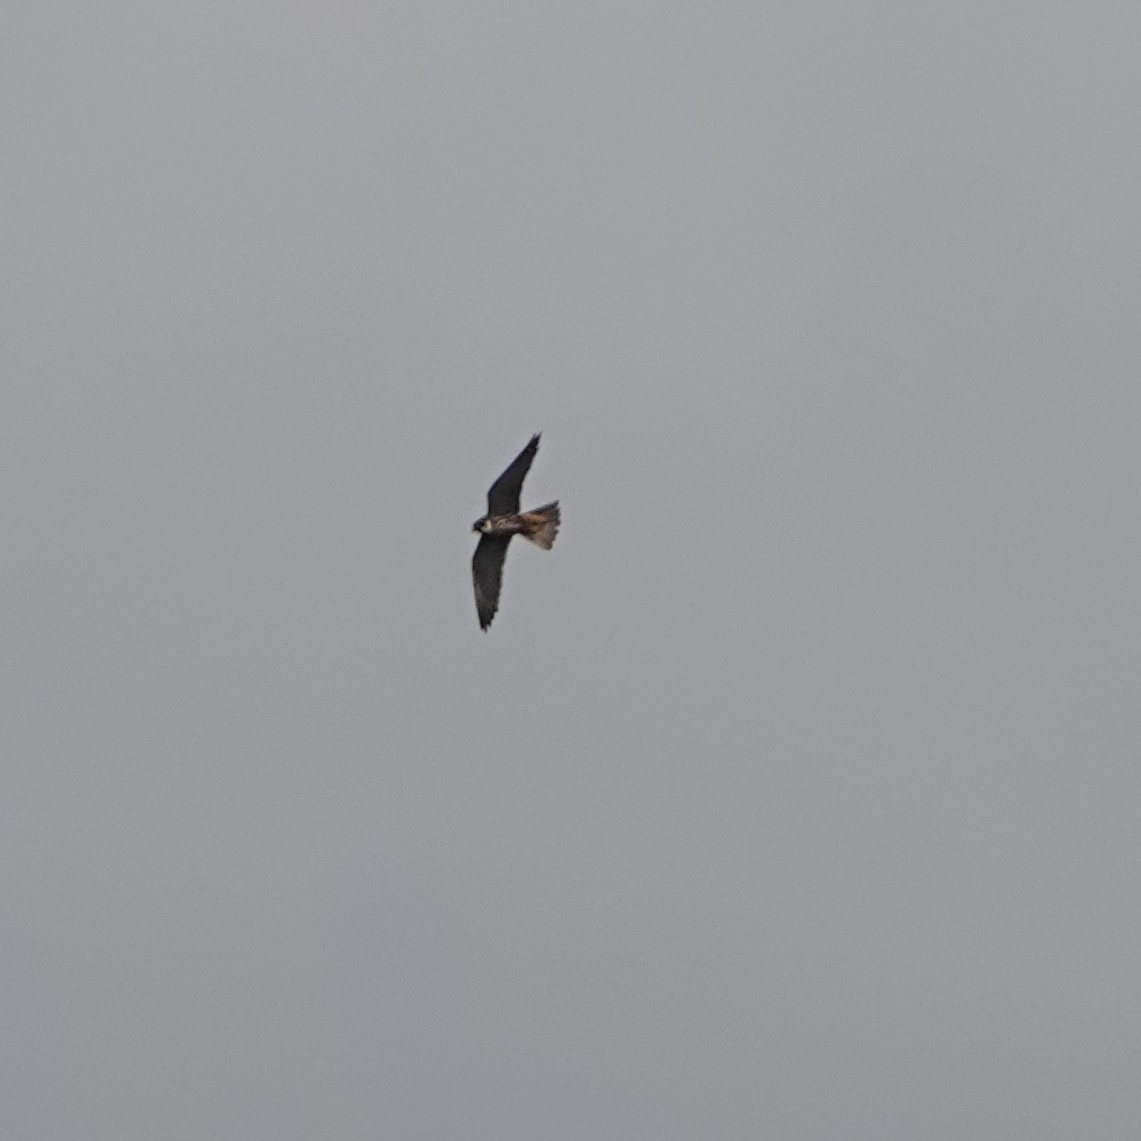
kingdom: Animalia
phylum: Chordata
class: Aves
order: Falconiformes
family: Falconidae
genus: Falco
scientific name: Falco subbuteo
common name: Eurasian hobby
